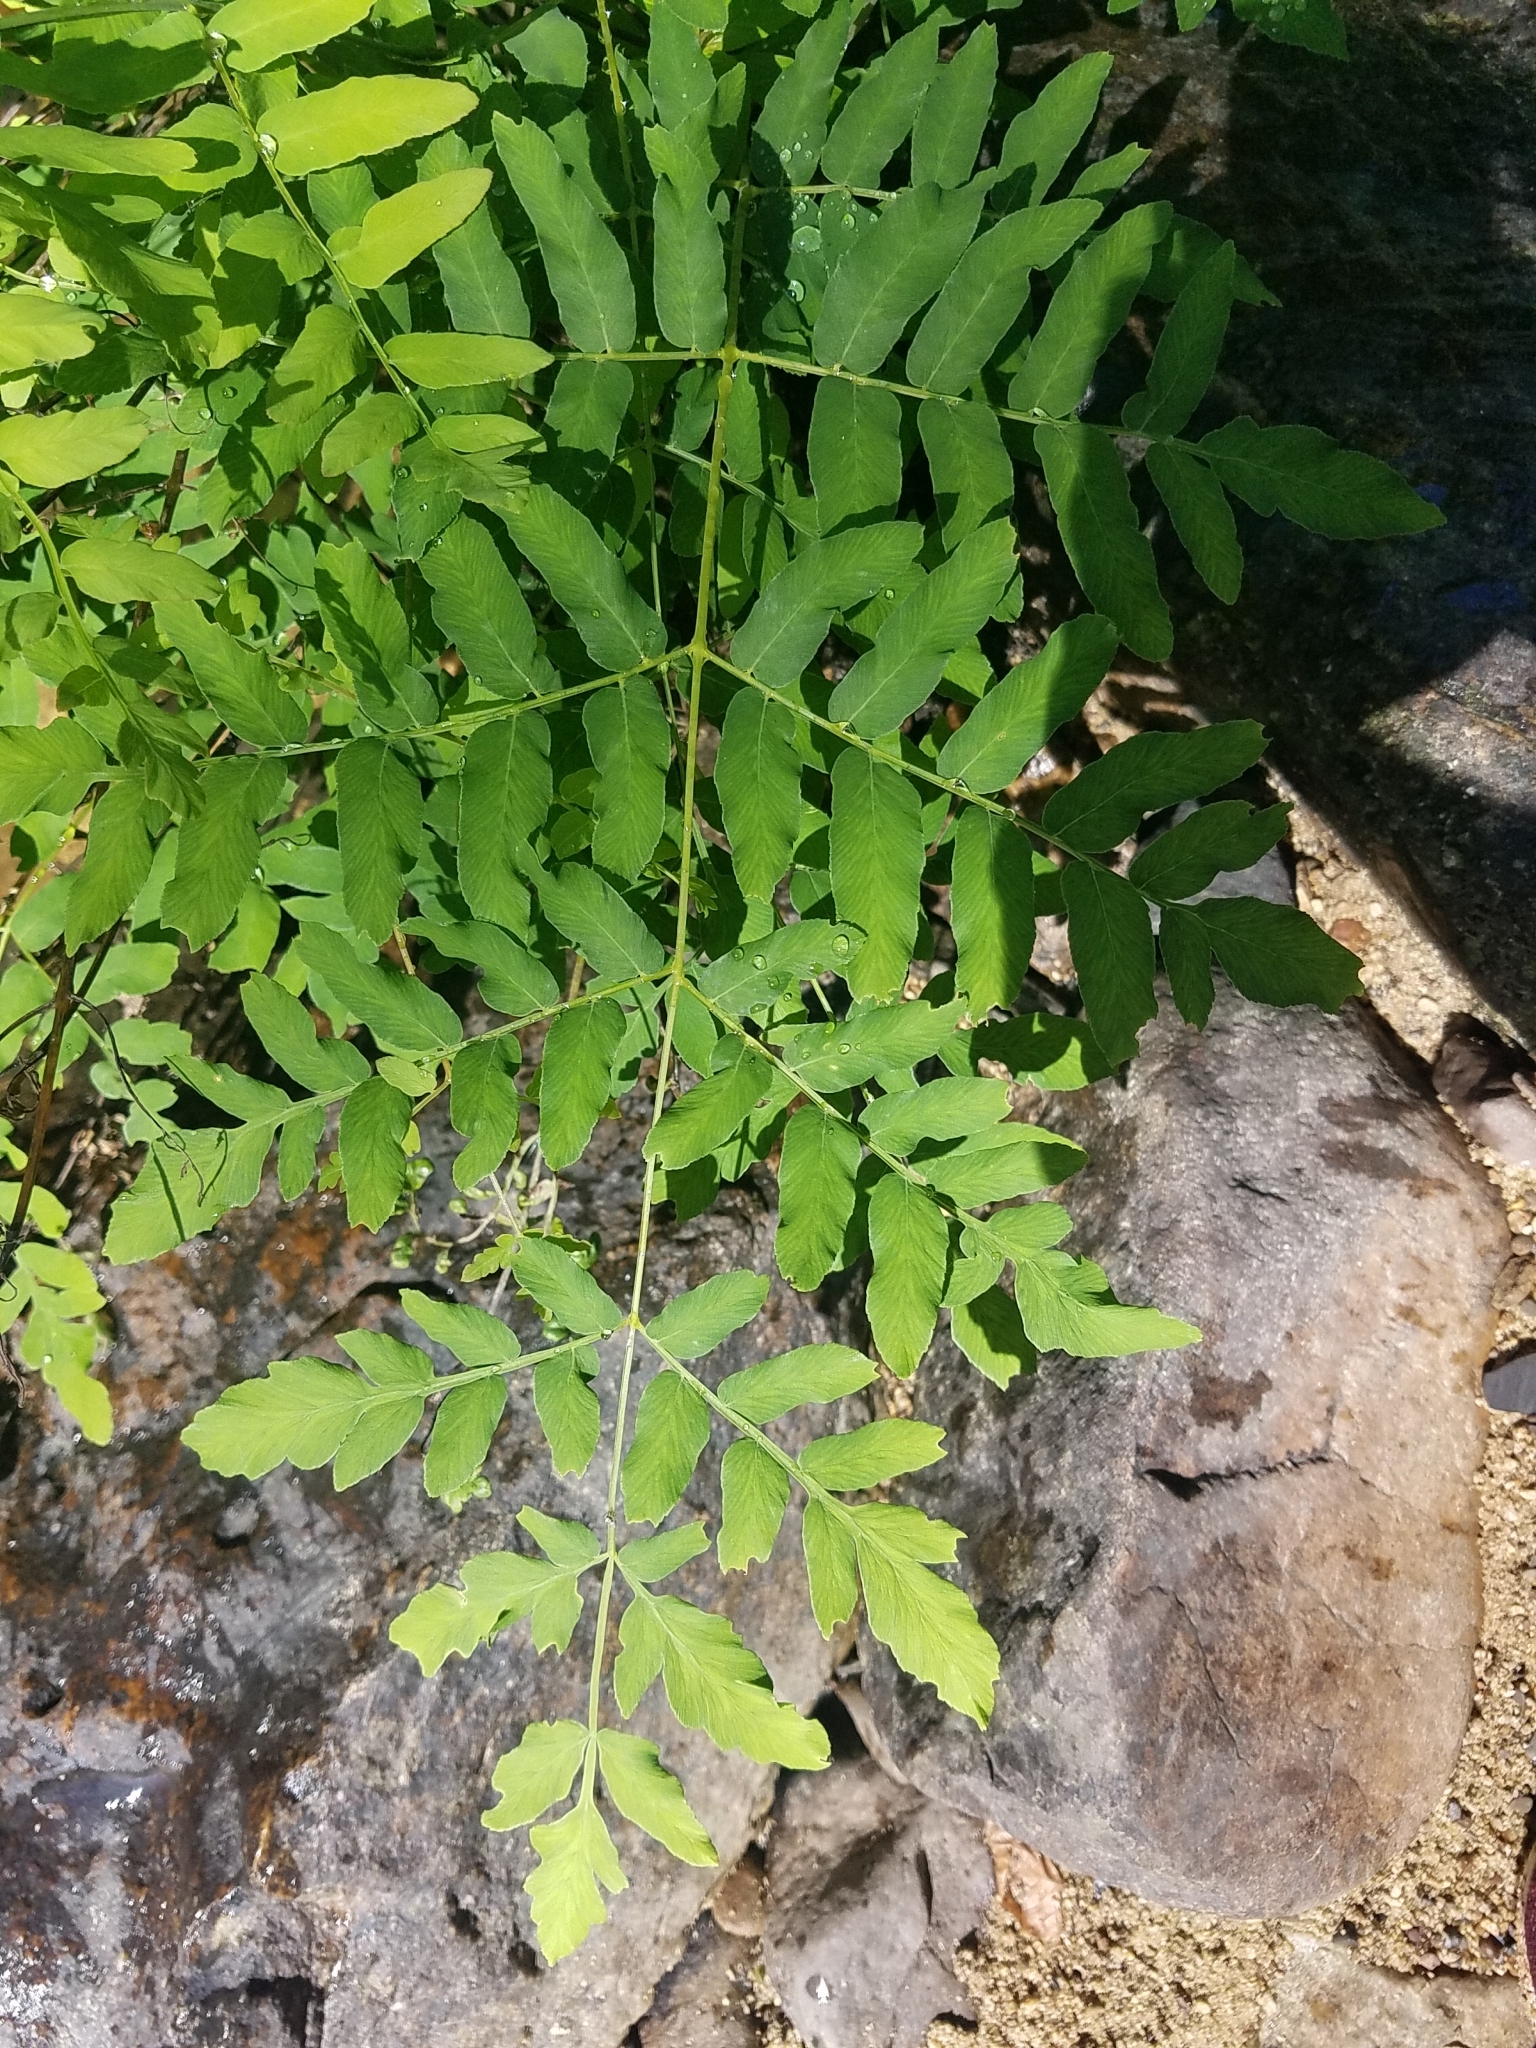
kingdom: Plantae
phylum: Tracheophyta
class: Polypodiopsida
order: Osmundales
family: Osmundaceae
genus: Osmunda
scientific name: Osmunda spectabilis
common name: American royal fern
